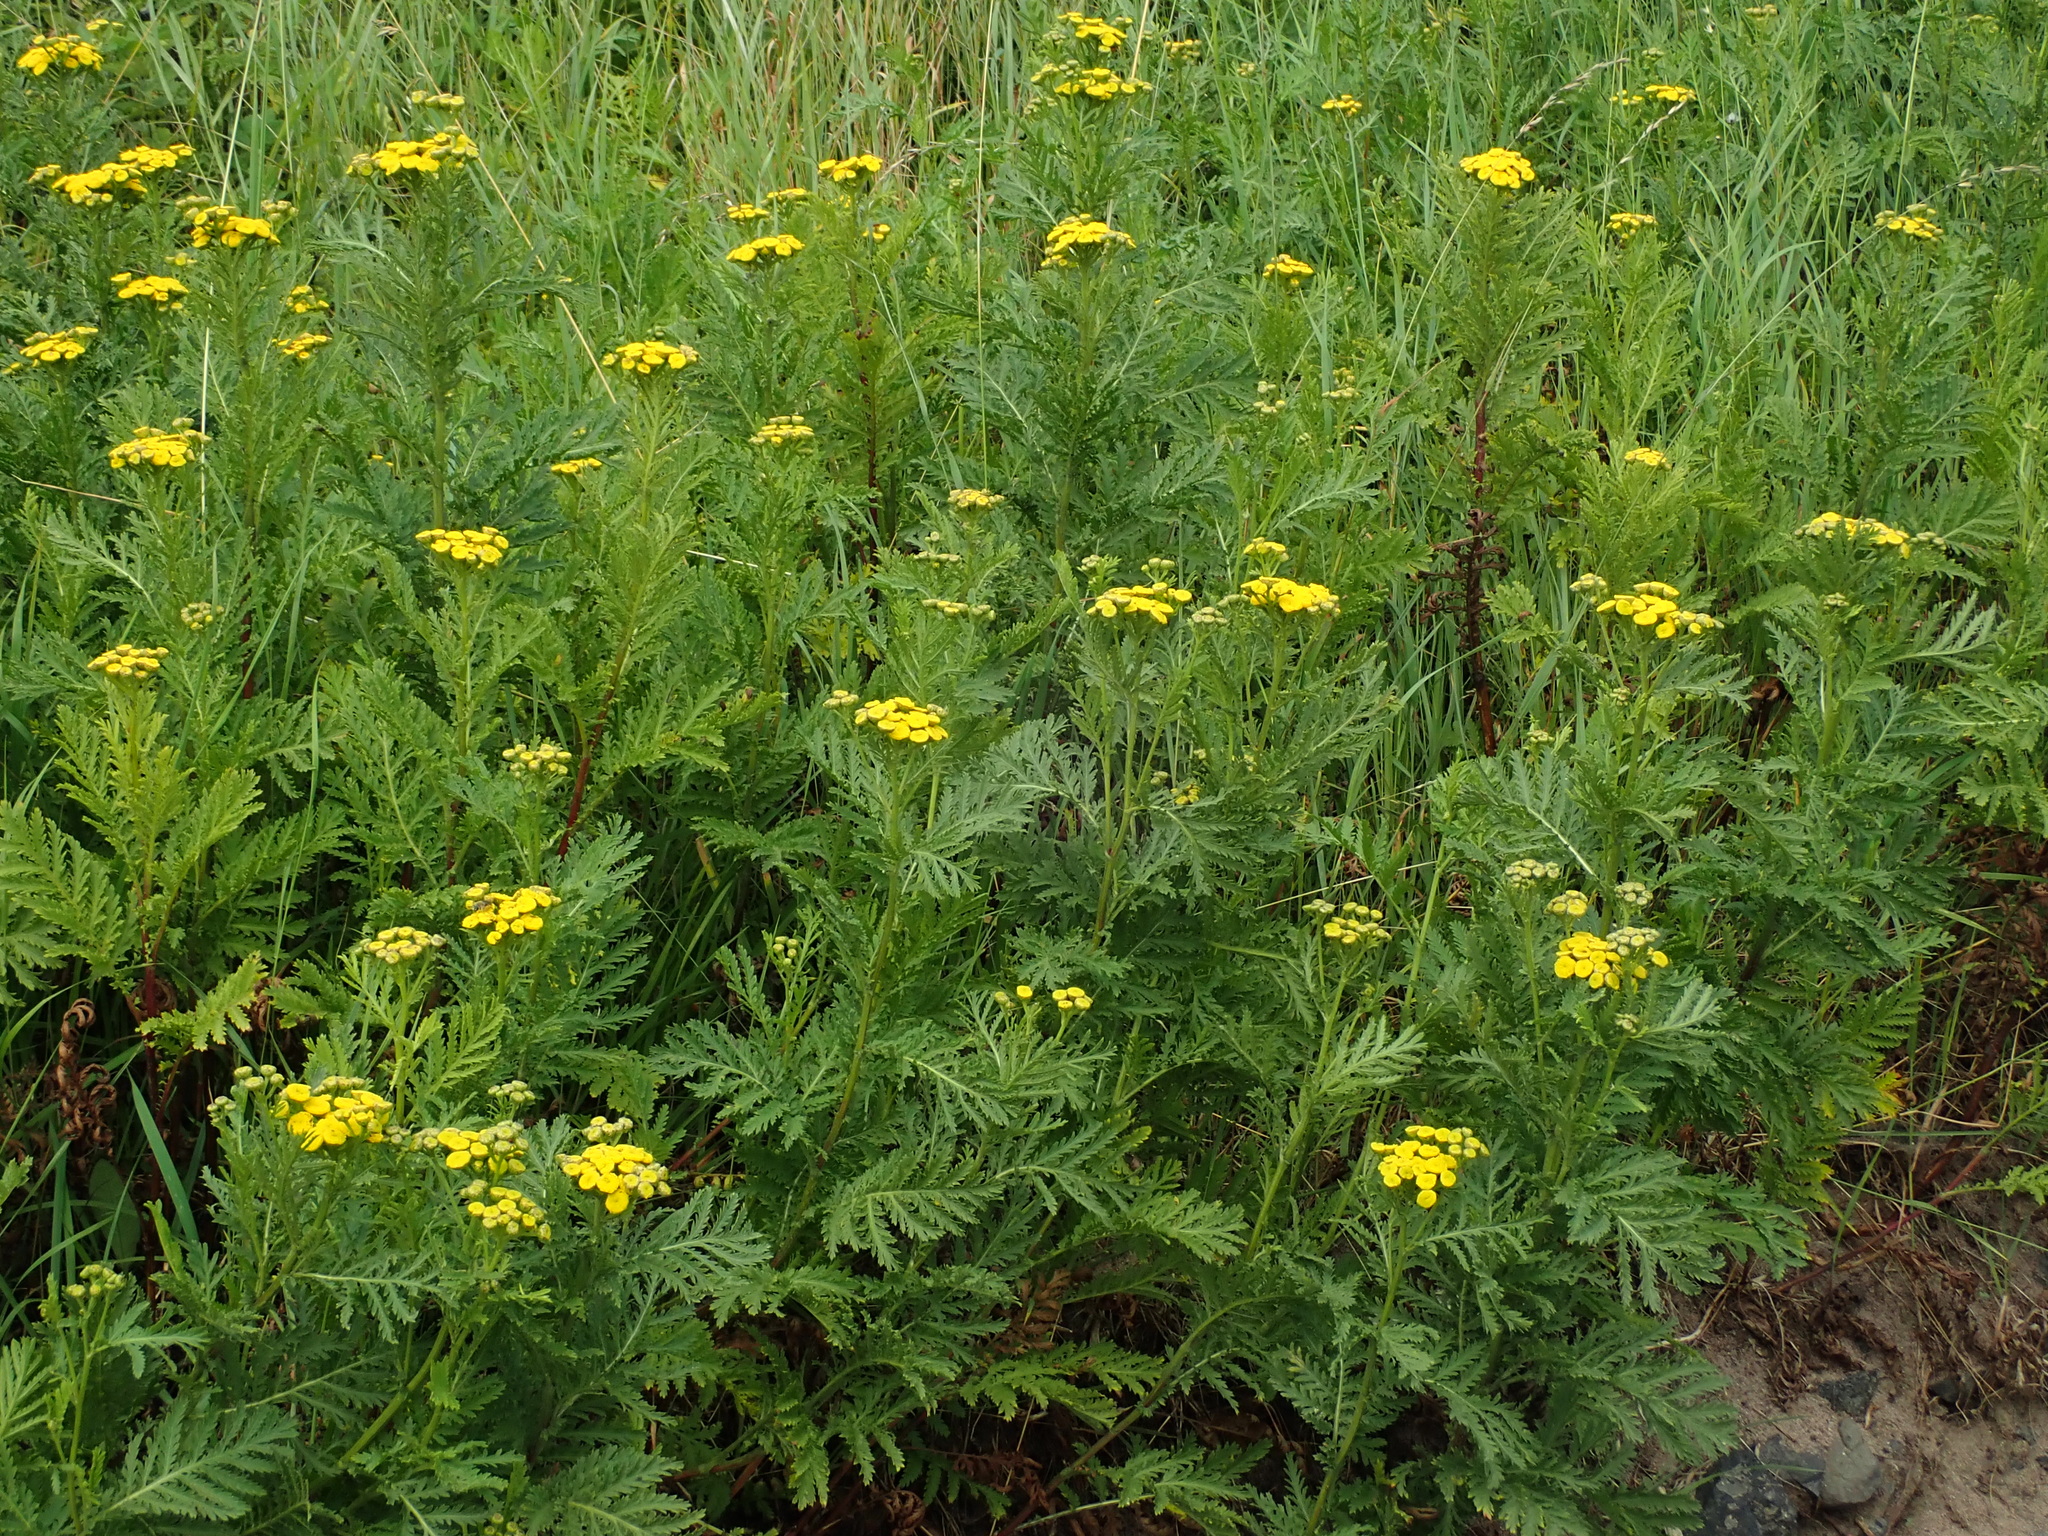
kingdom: Plantae
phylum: Tracheophyta
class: Magnoliopsida
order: Asterales
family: Asteraceae
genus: Tanacetum
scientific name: Tanacetum vulgare
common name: Common tansy
